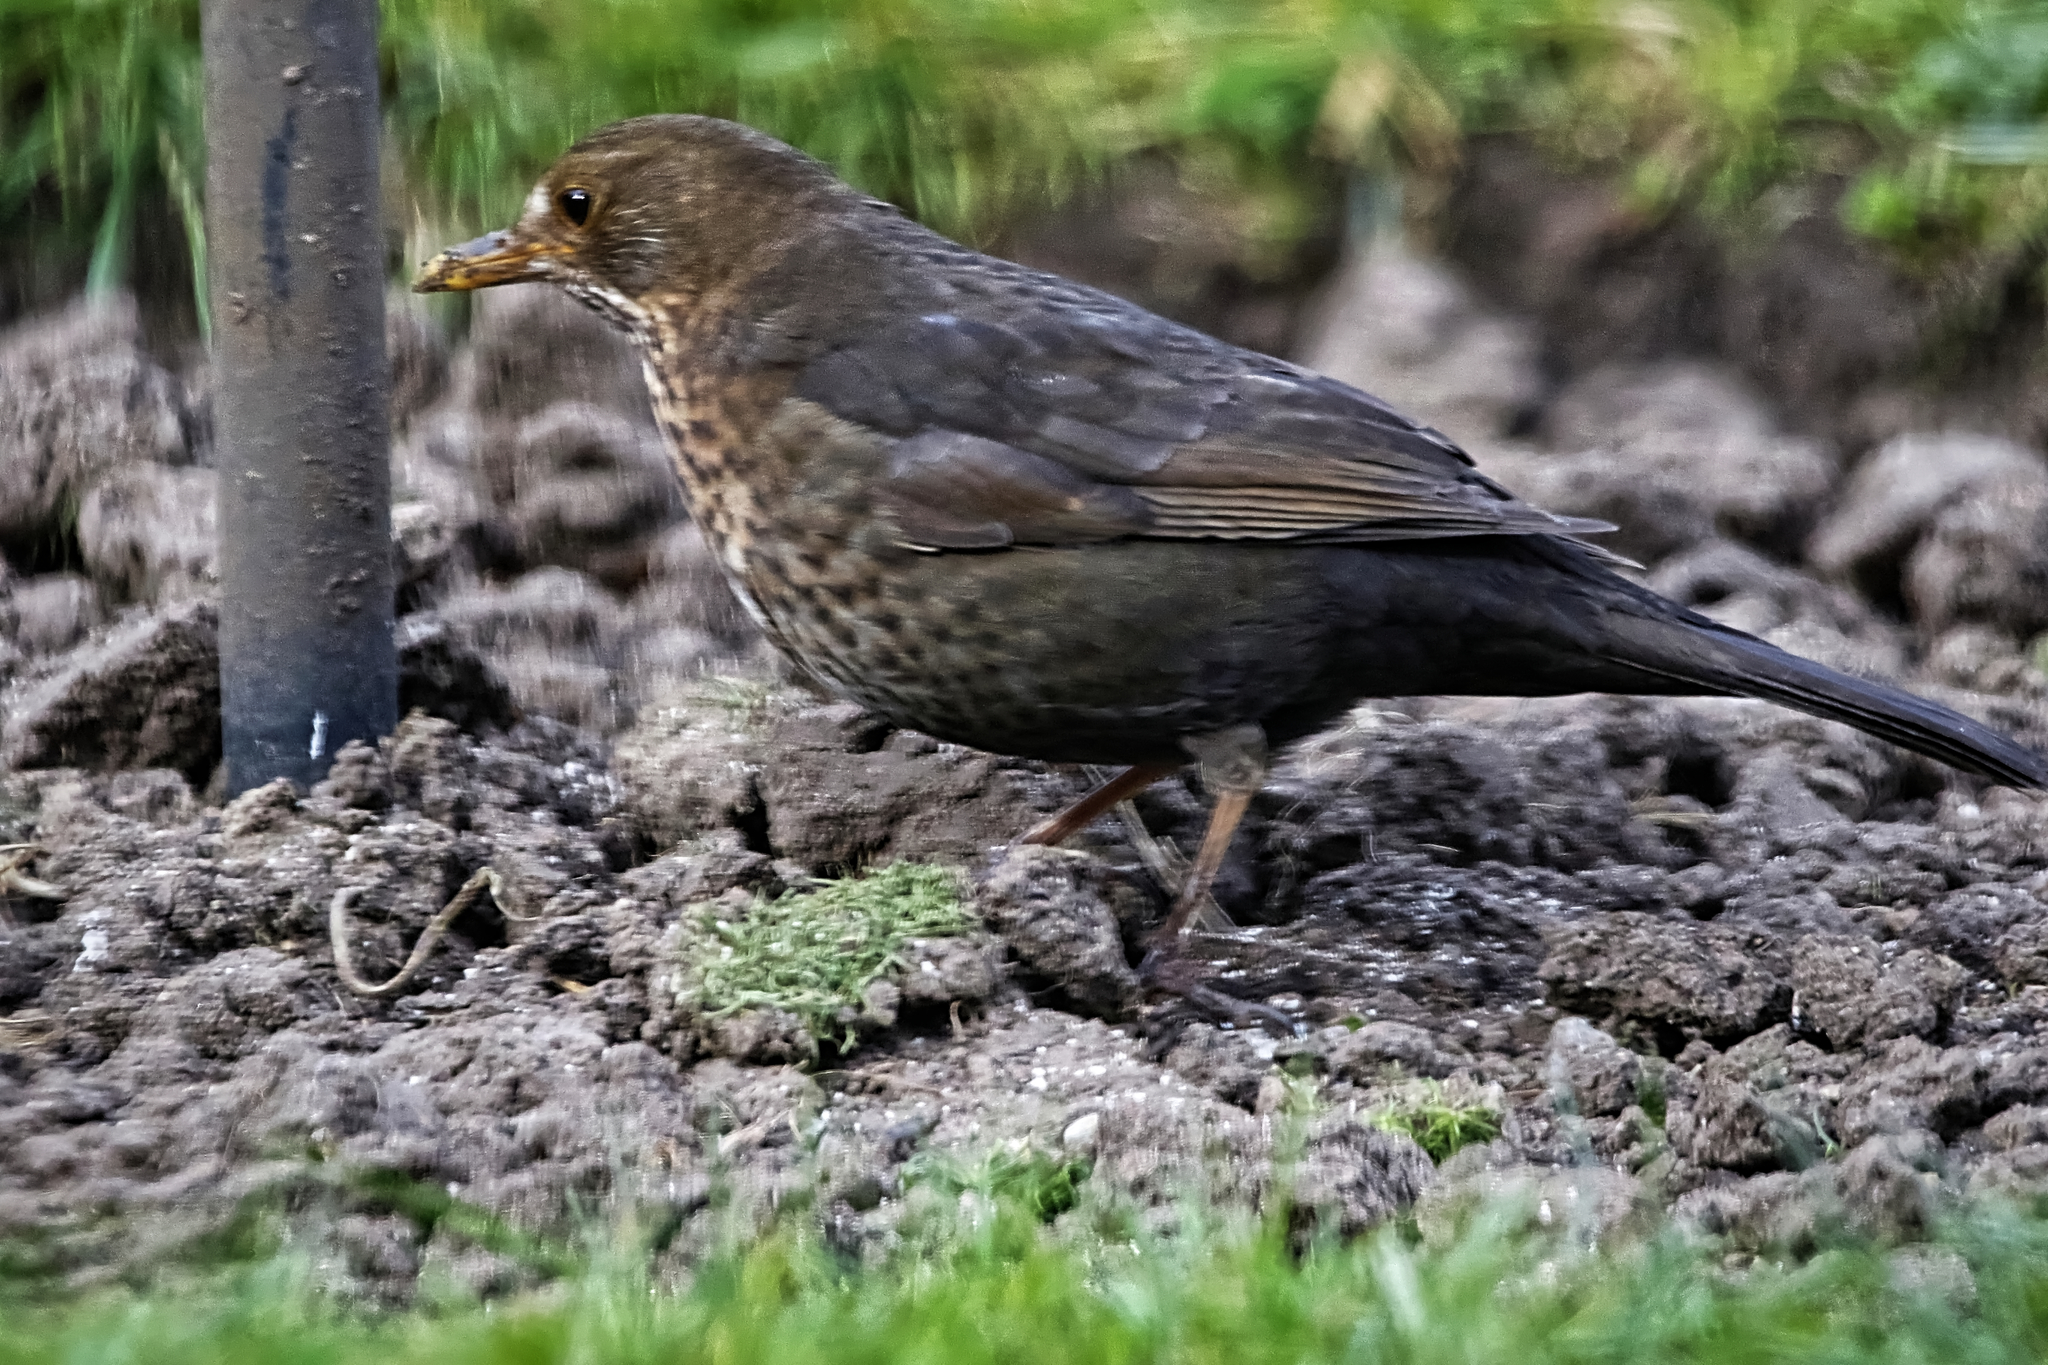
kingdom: Animalia
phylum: Chordata
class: Aves
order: Passeriformes
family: Turdidae
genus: Turdus
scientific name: Turdus merula
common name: Common blackbird
